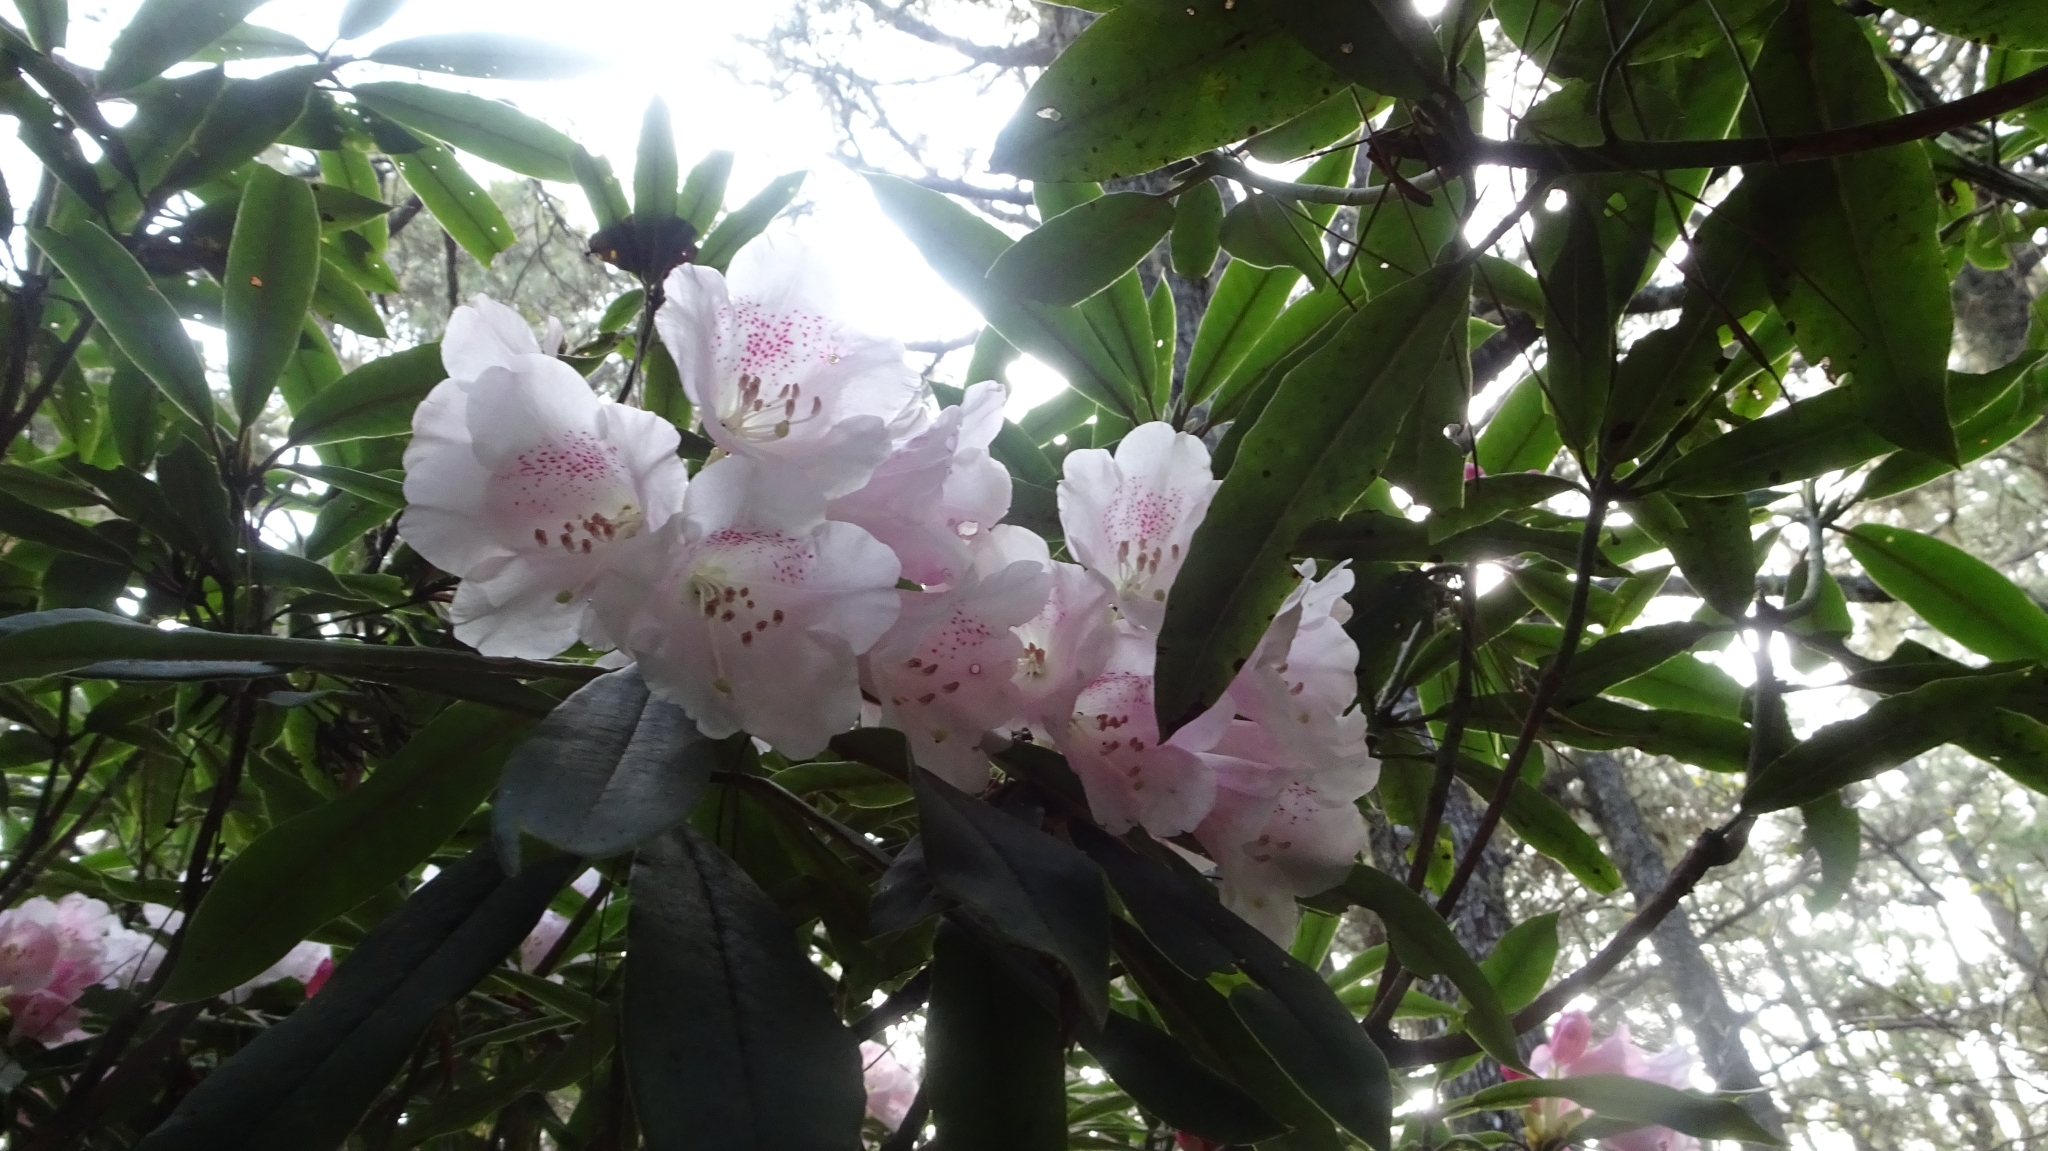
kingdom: Plantae
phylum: Tracheophyta
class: Magnoliopsida
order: Ericales
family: Ericaceae
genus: Rhododendron
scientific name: Rhododendron pseudochrysanthum
